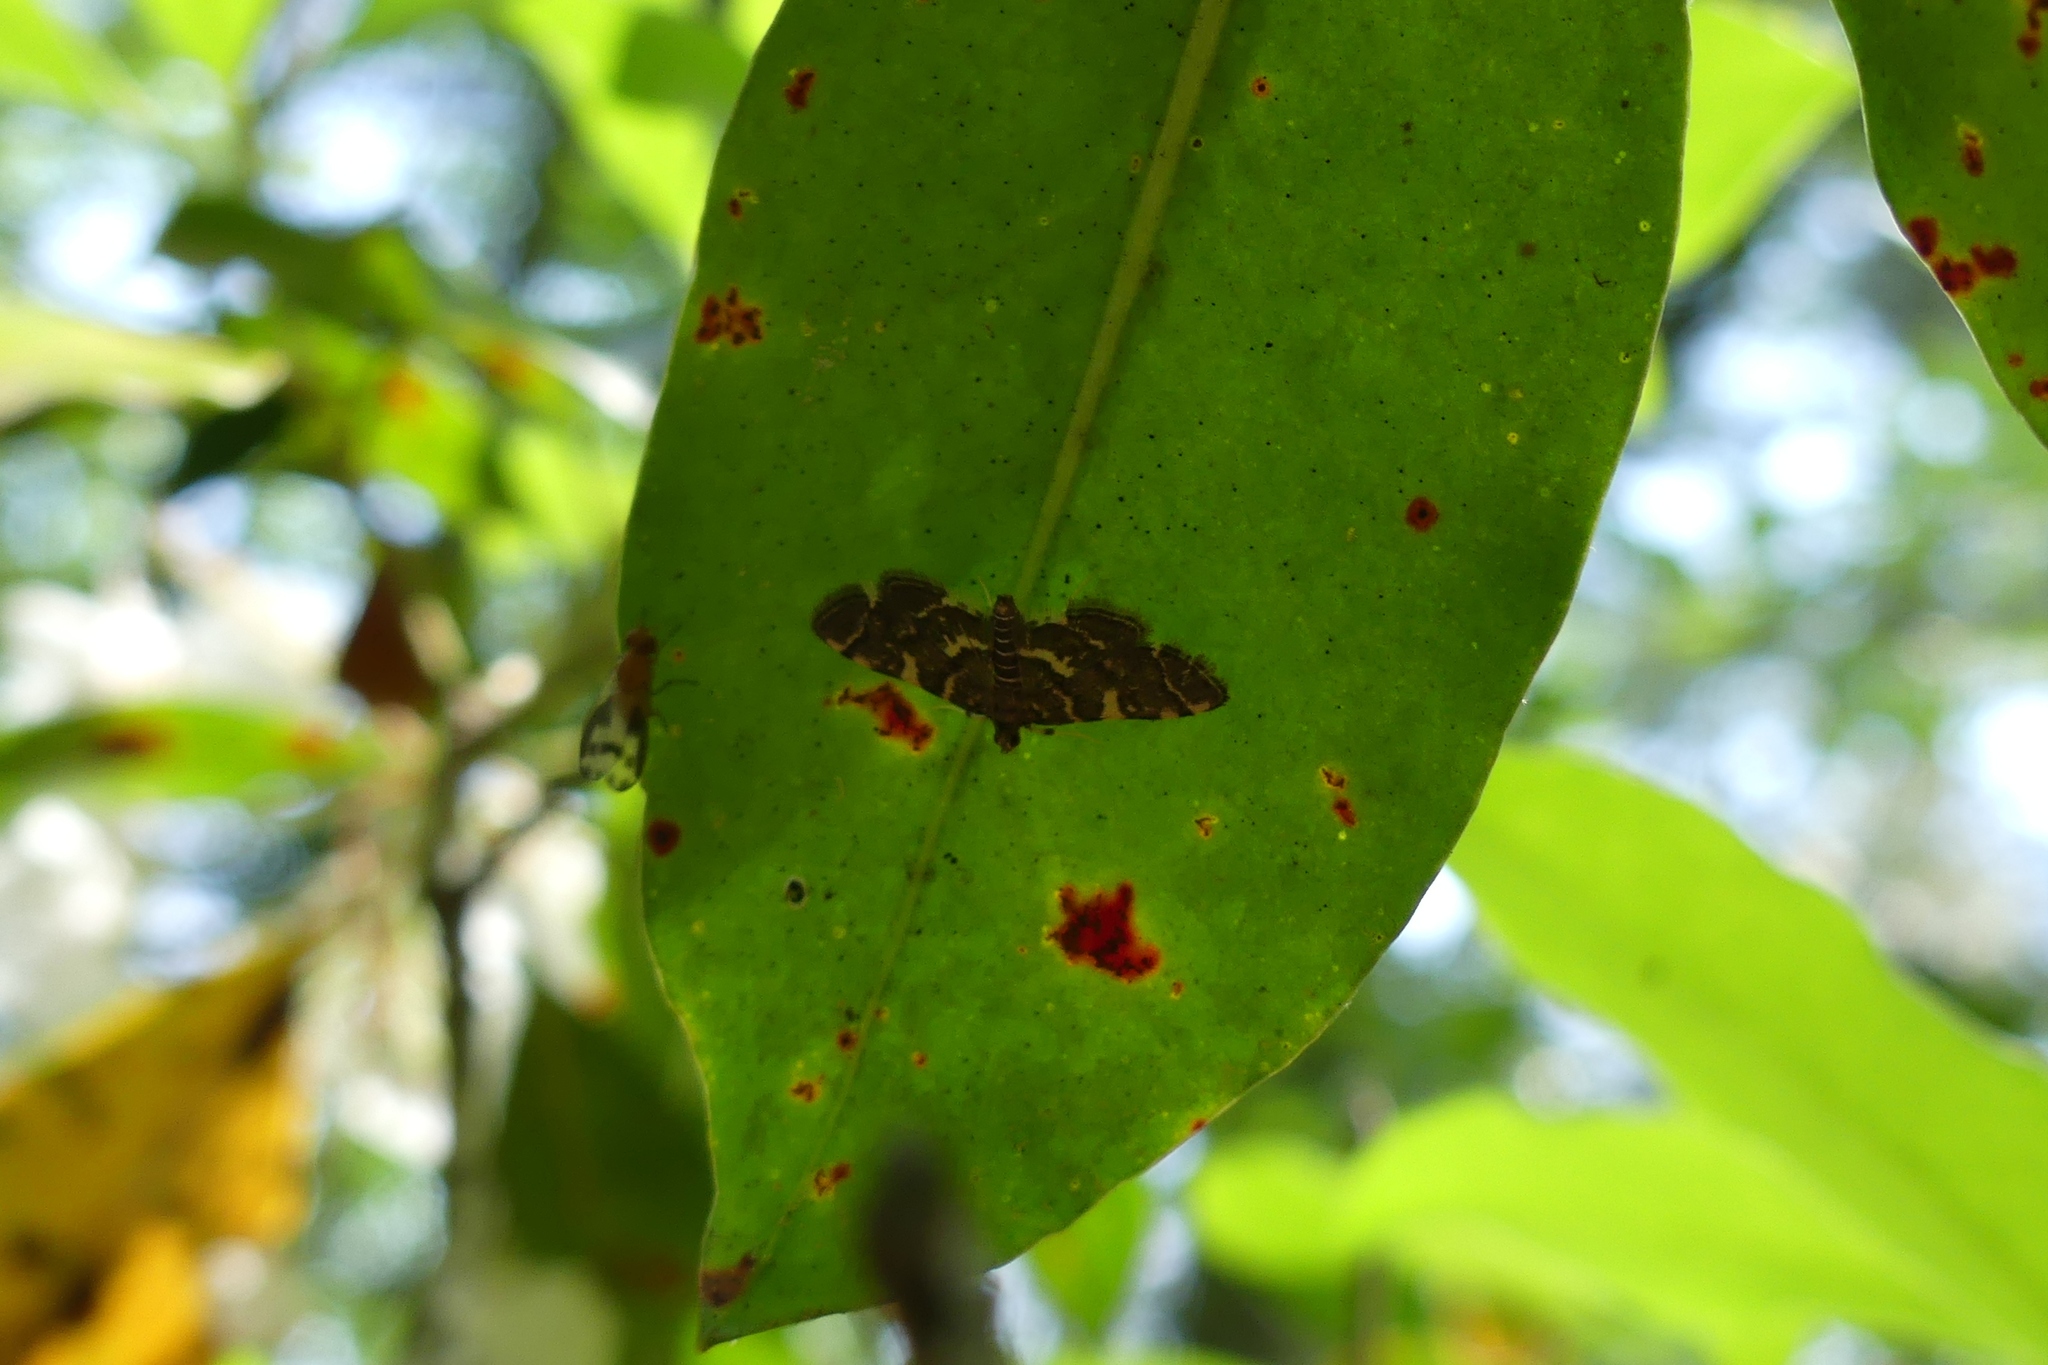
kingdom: Animalia
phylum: Arthropoda
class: Insecta
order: Lepidoptera
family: Crambidae
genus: Anageshna
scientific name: Anageshna primordialis
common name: Yellow-spotted webworm moth
